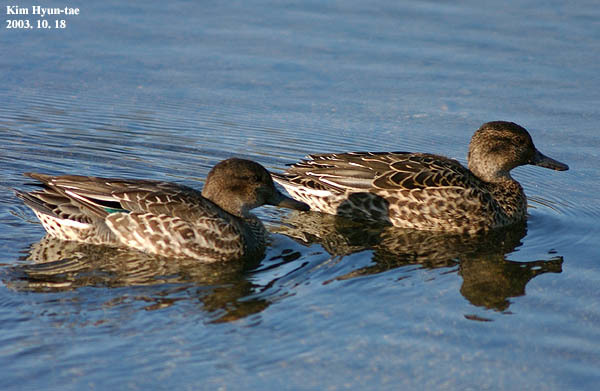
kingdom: Animalia
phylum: Chordata
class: Aves
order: Anseriformes
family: Anatidae
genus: Anas
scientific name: Anas crecca
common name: Eurasian teal
